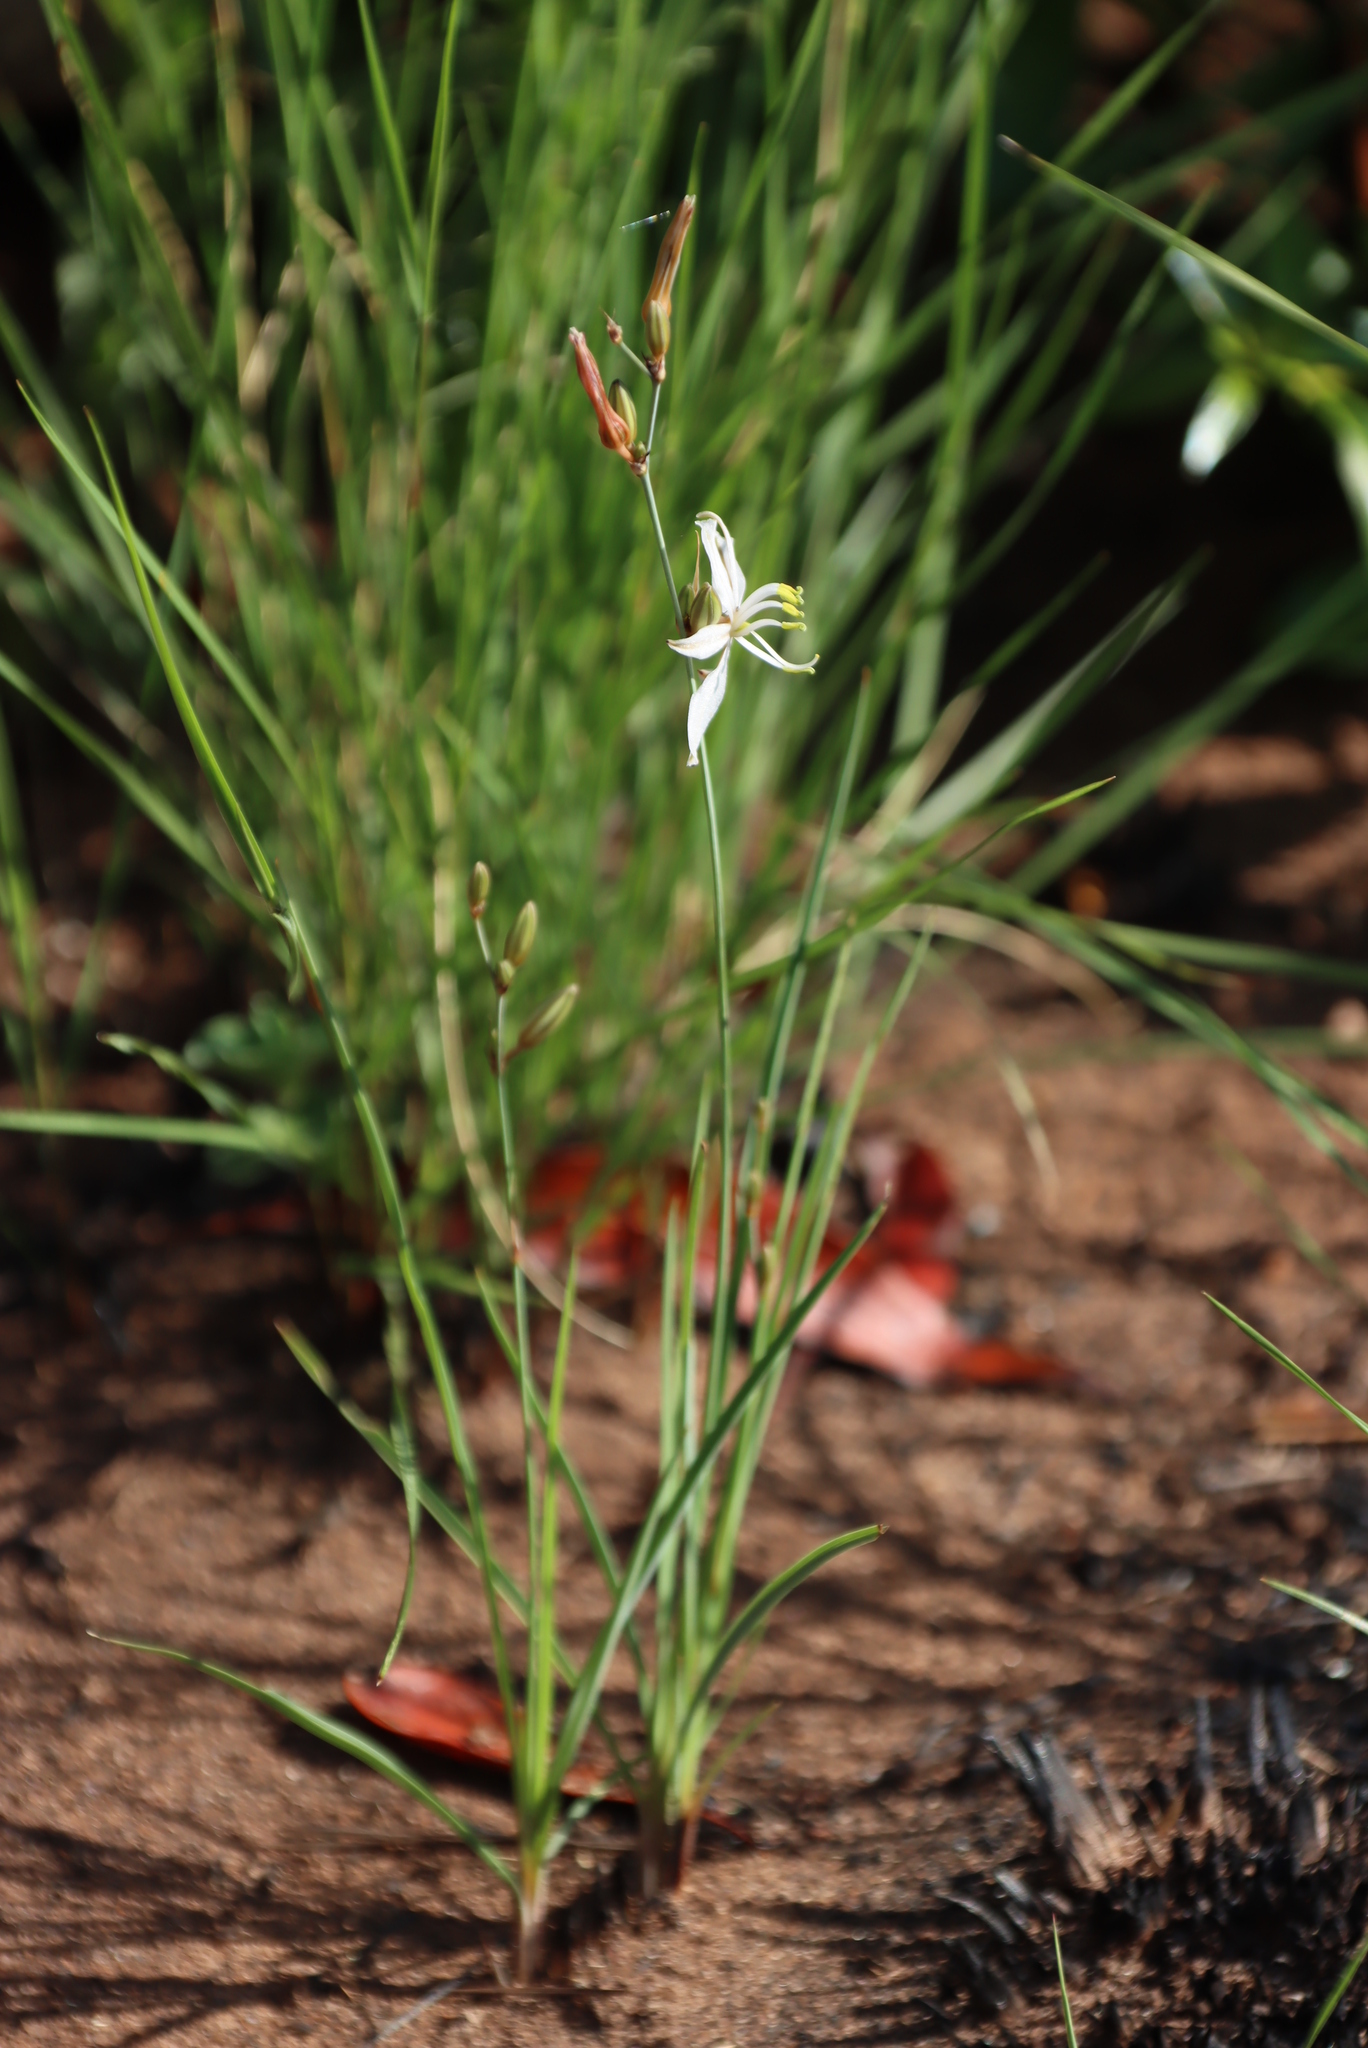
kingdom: Plantae
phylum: Tracheophyta
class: Liliopsida
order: Asparagales
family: Asparagaceae
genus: Chlorophytum
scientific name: Chlorophytum cooperi
